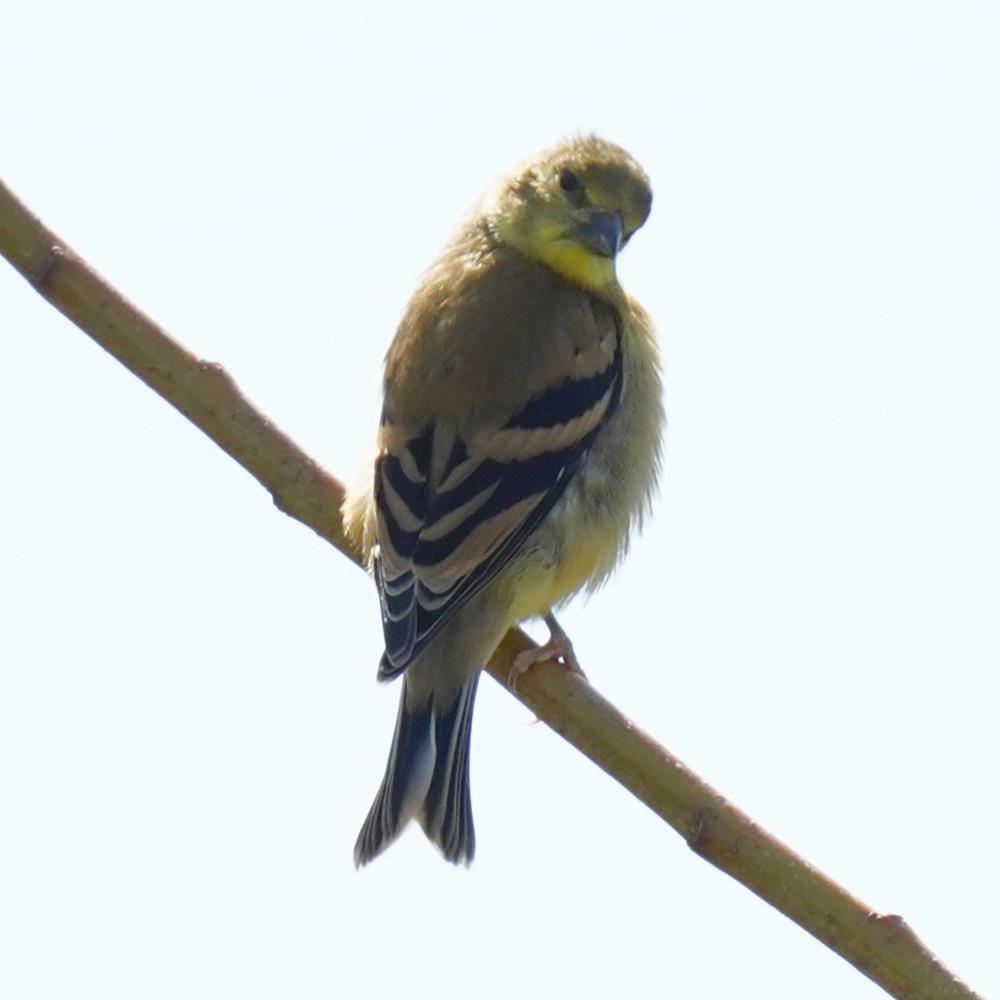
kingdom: Animalia
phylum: Chordata
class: Aves
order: Passeriformes
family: Fringillidae
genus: Spinus
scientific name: Spinus tristis
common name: American goldfinch
